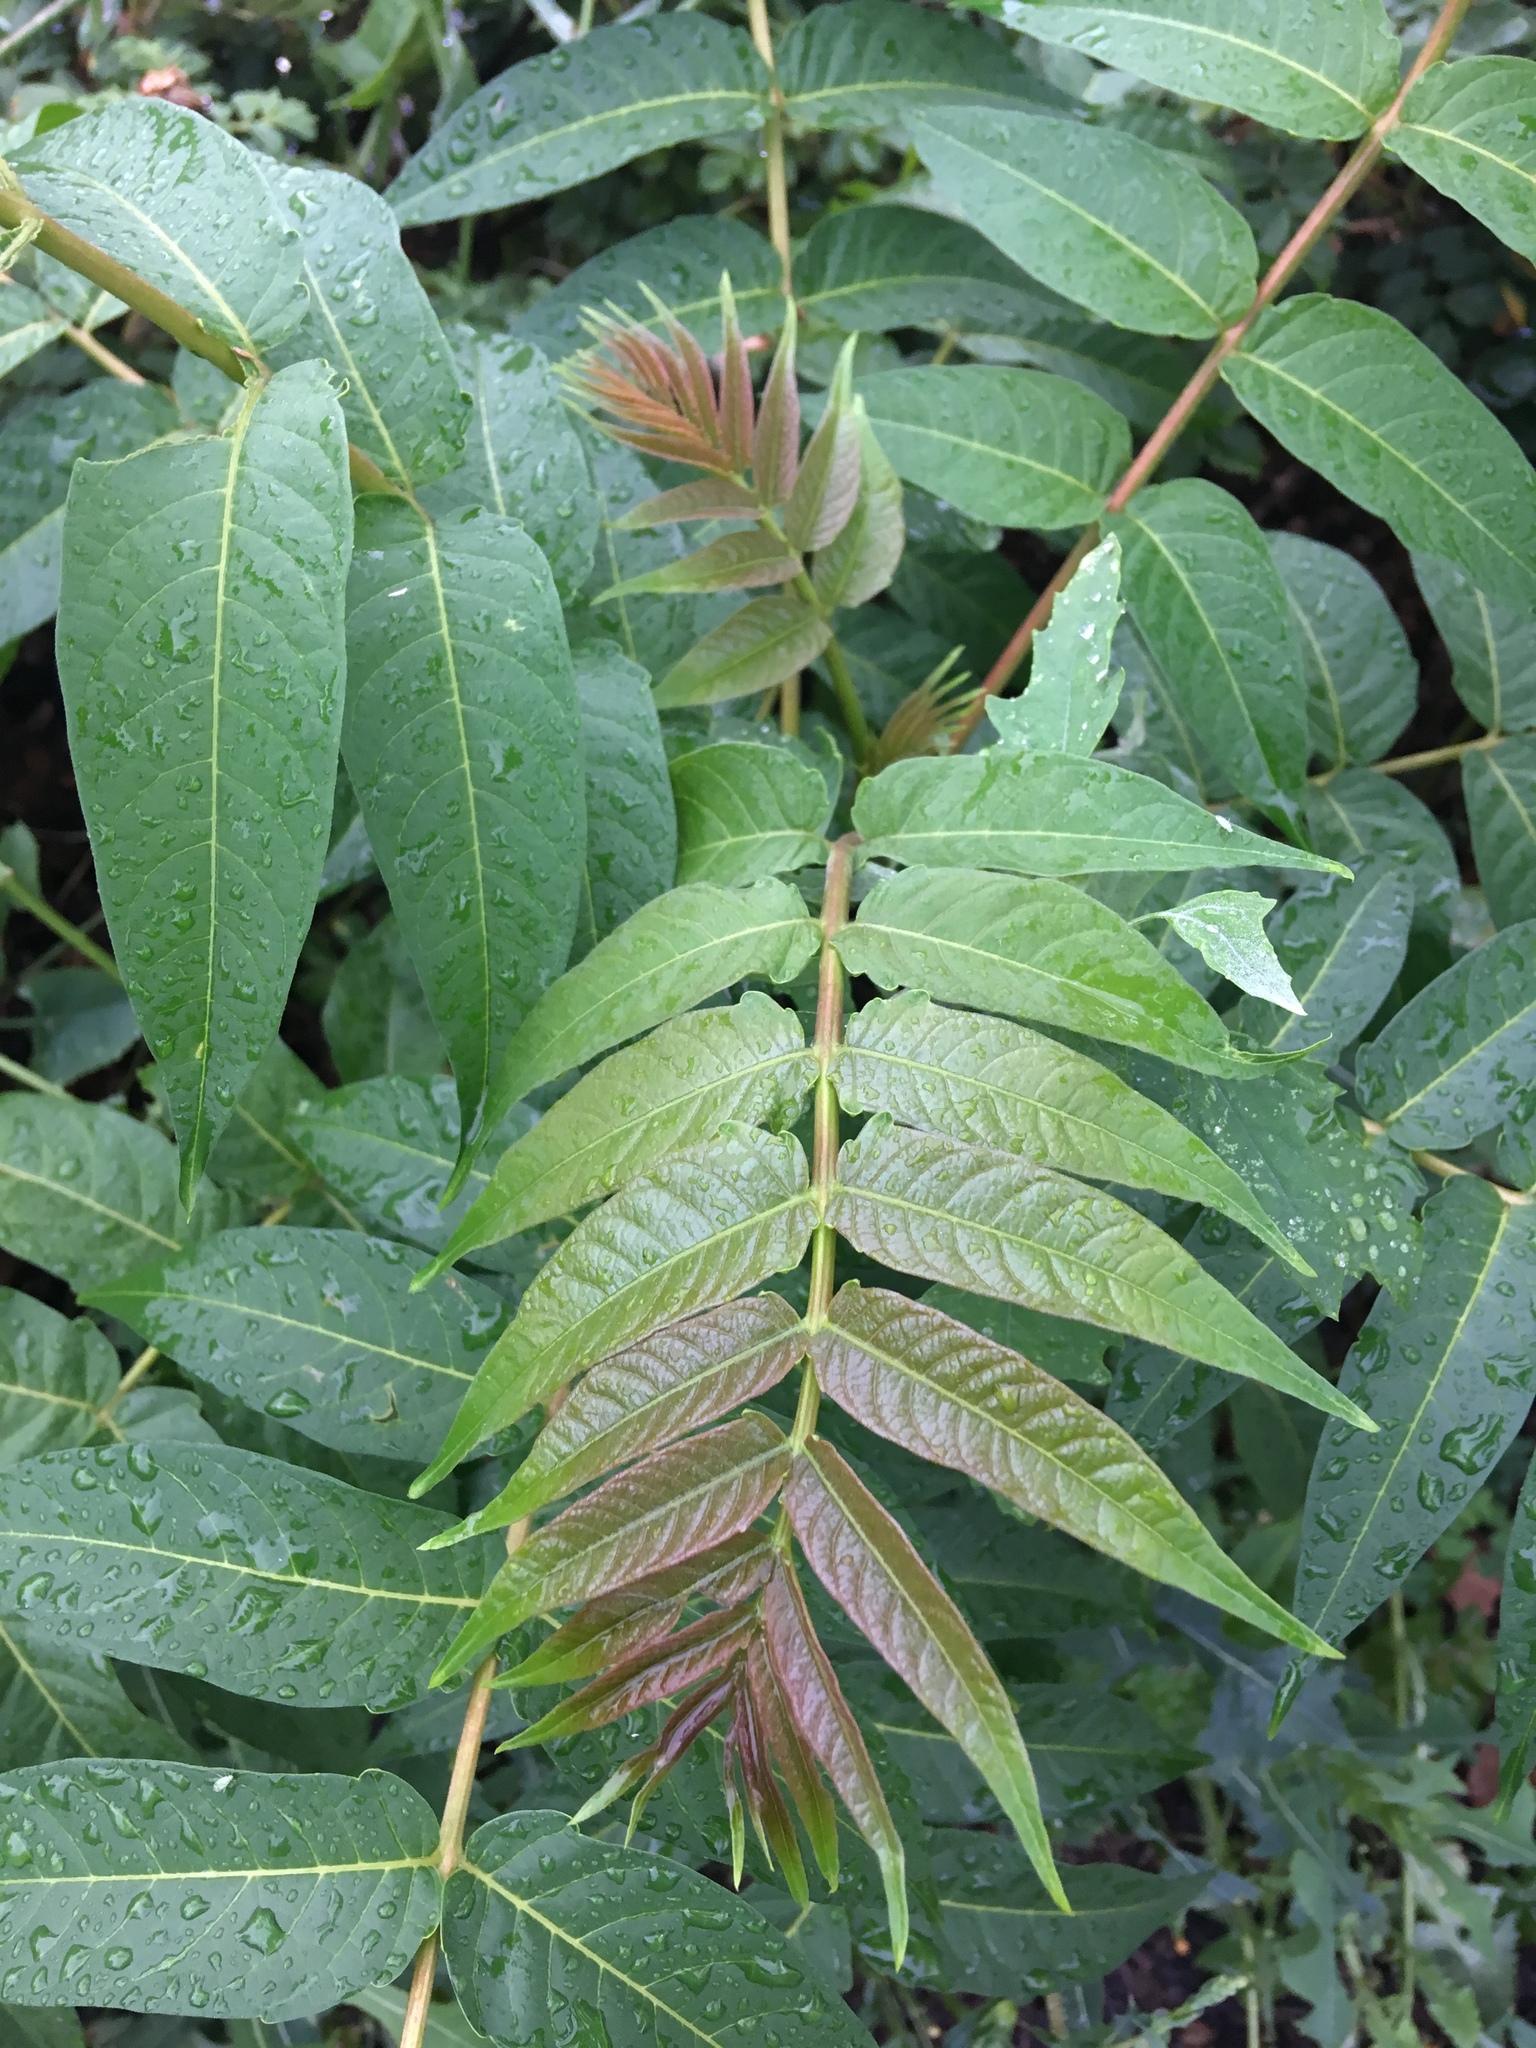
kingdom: Plantae
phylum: Tracheophyta
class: Magnoliopsida
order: Sapindales
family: Simaroubaceae
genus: Ailanthus
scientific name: Ailanthus altissima
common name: Tree-of-heaven
